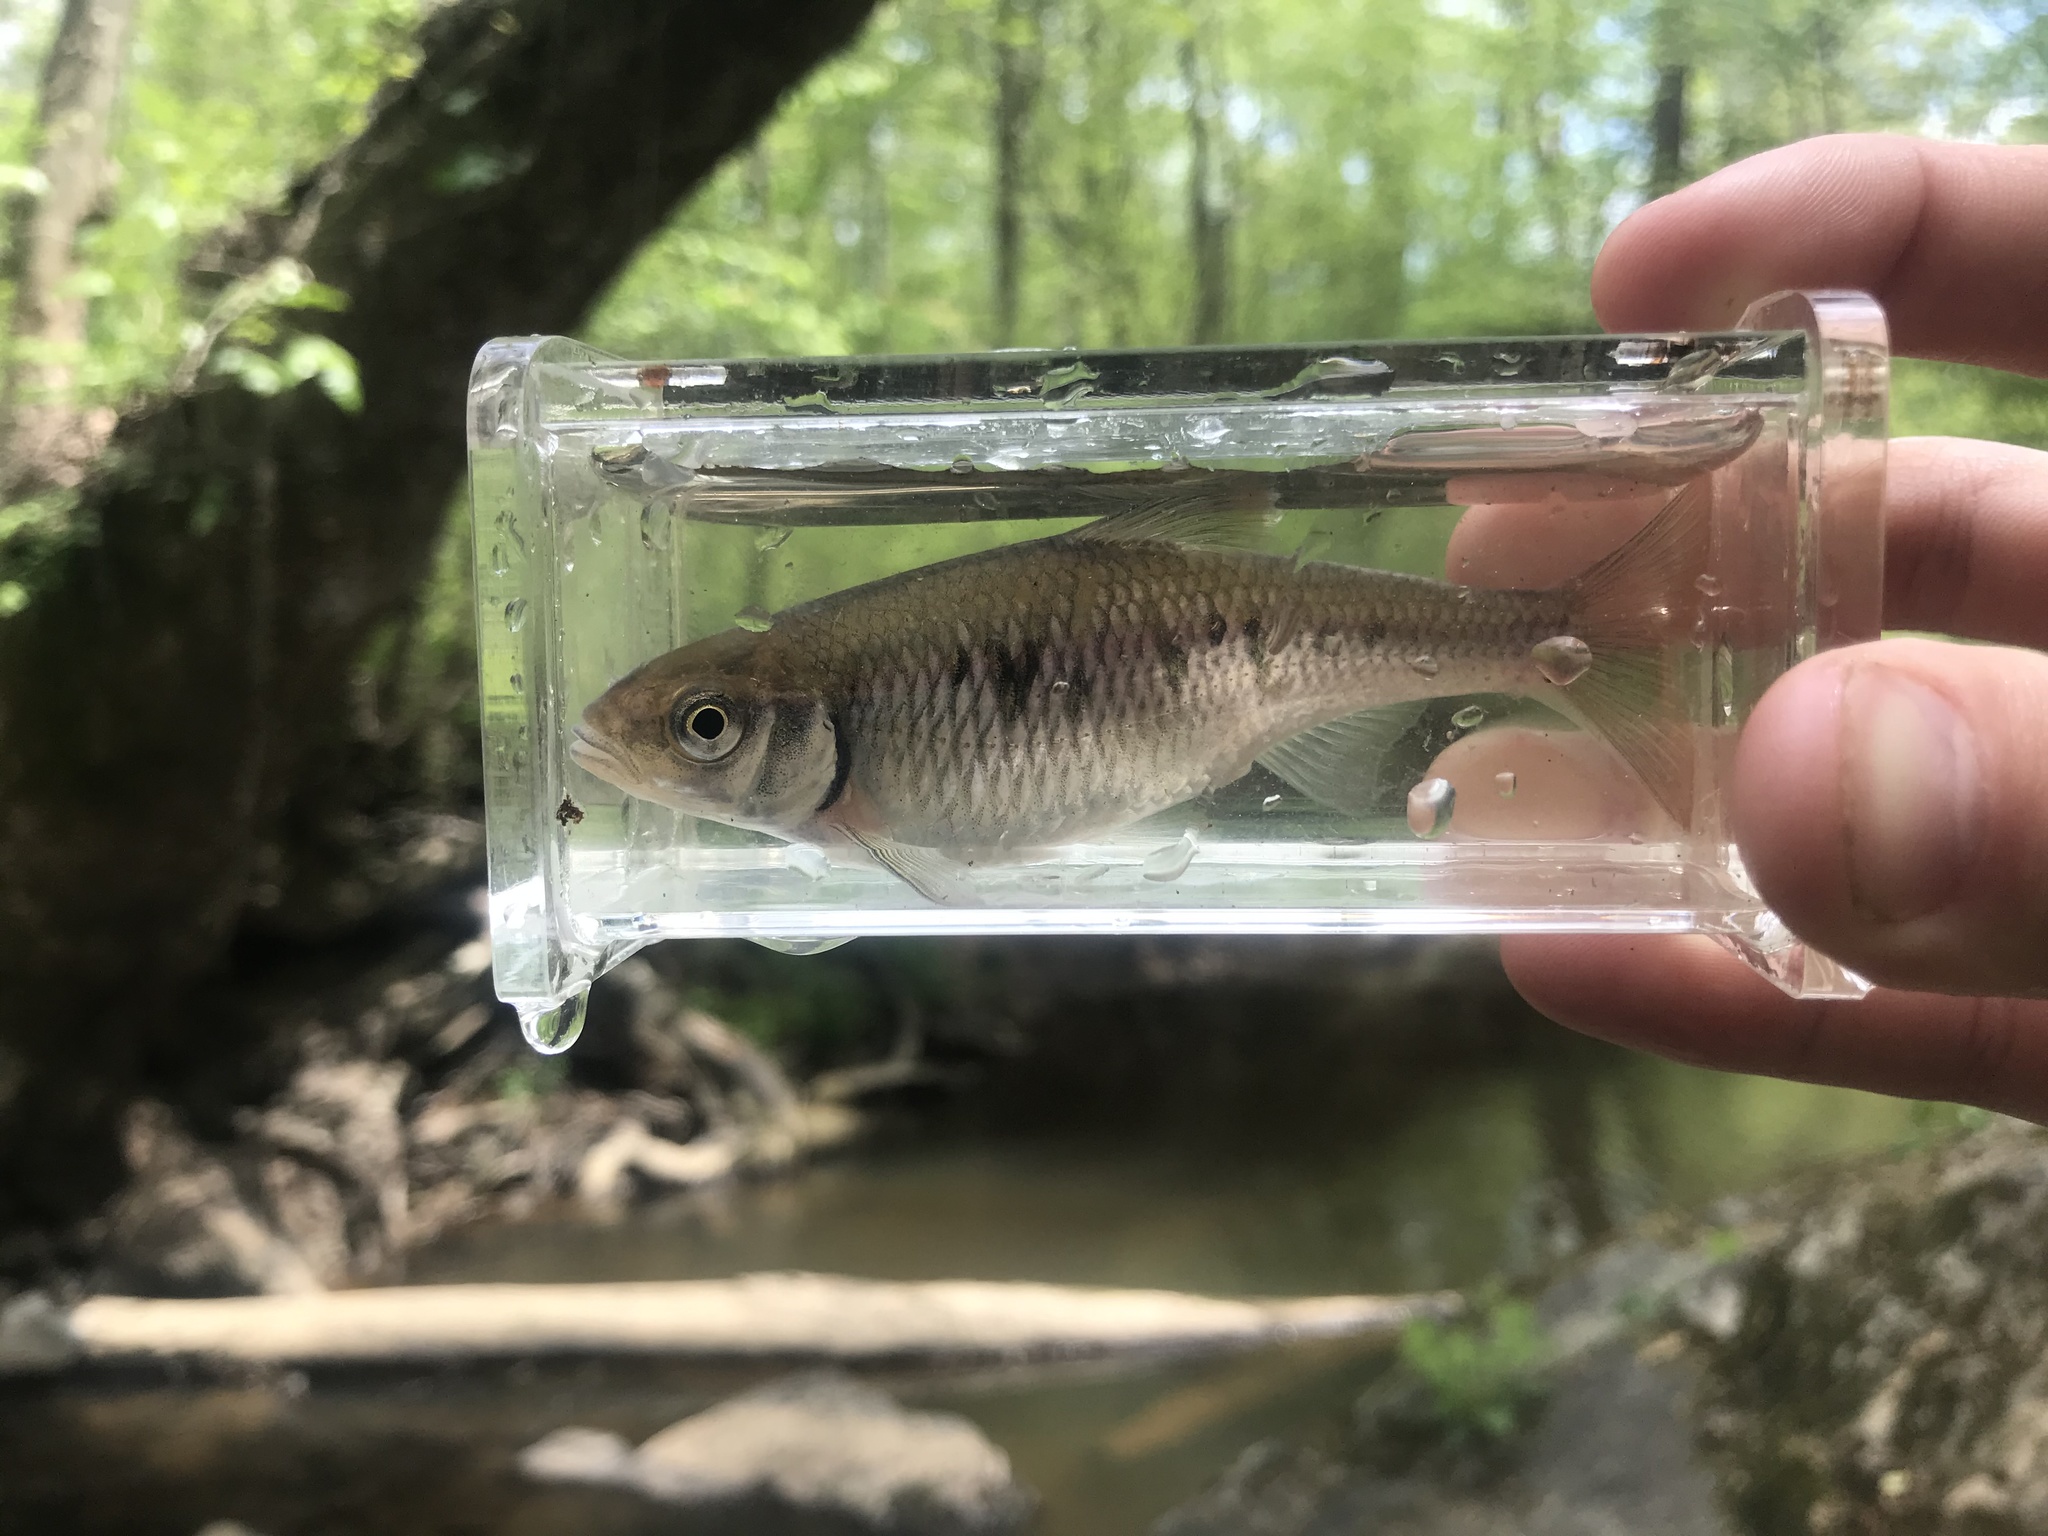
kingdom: Animalia
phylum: Chordata
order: Cypriniformes
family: Cyprinidae
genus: Luxilus
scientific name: Luxilus albeolus
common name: White shiner
